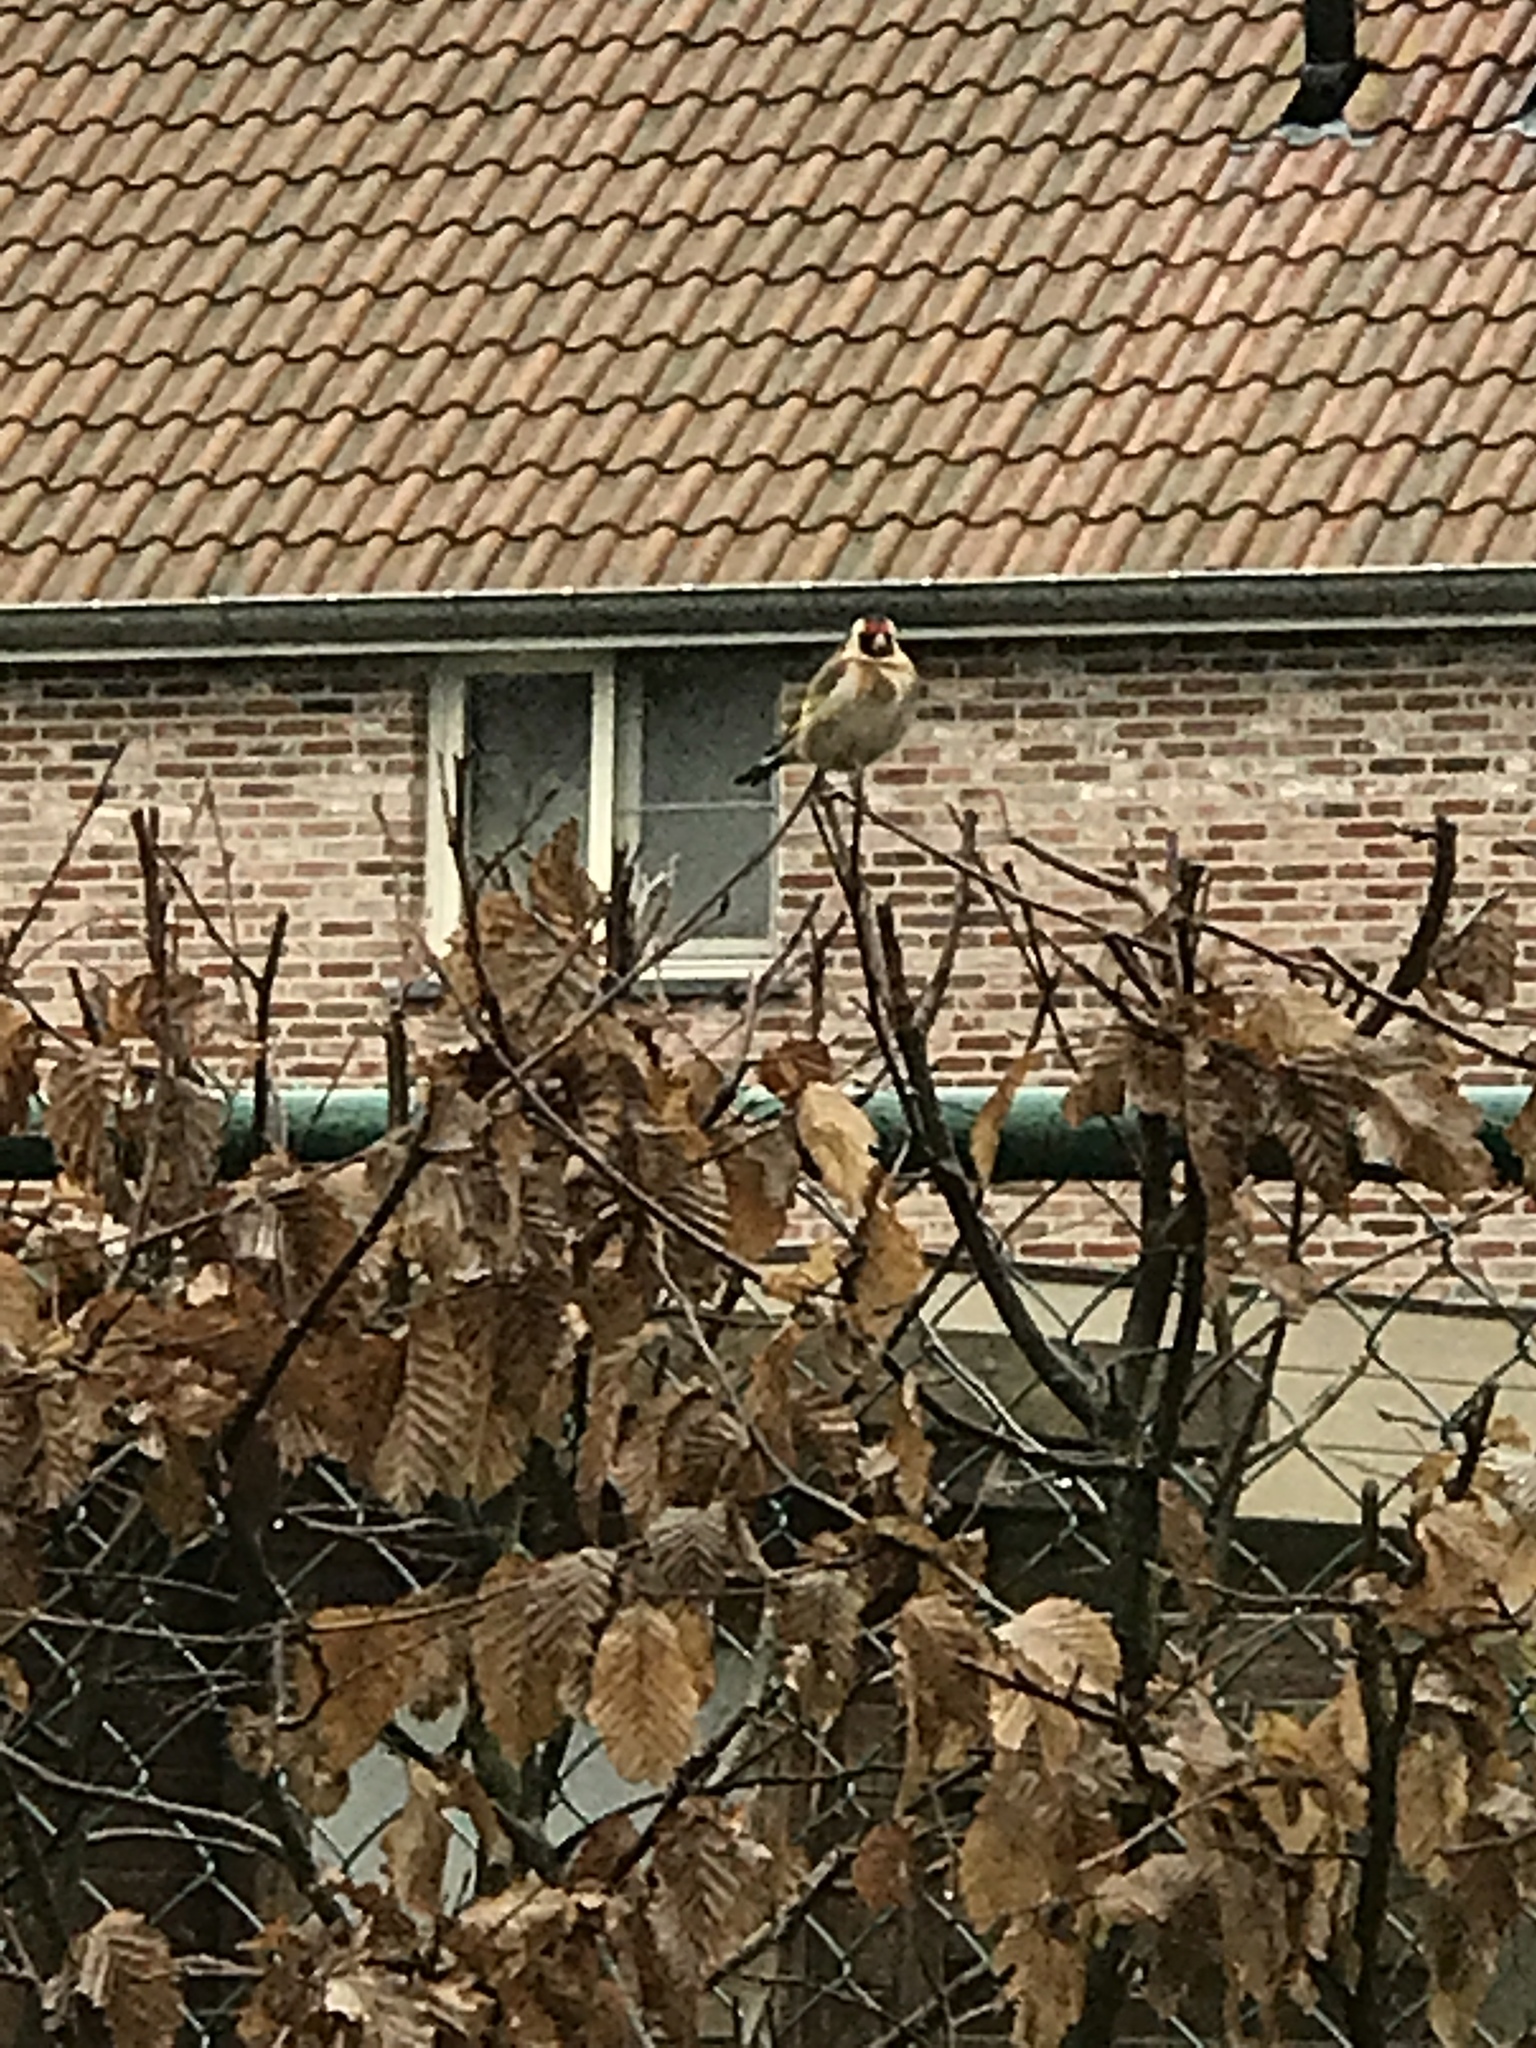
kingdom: Animalia
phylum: Chordata
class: Aves
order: Passeriformes
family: Fringillidae
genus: Carduelis
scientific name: Carduelis carduelis
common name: European goldfinch
